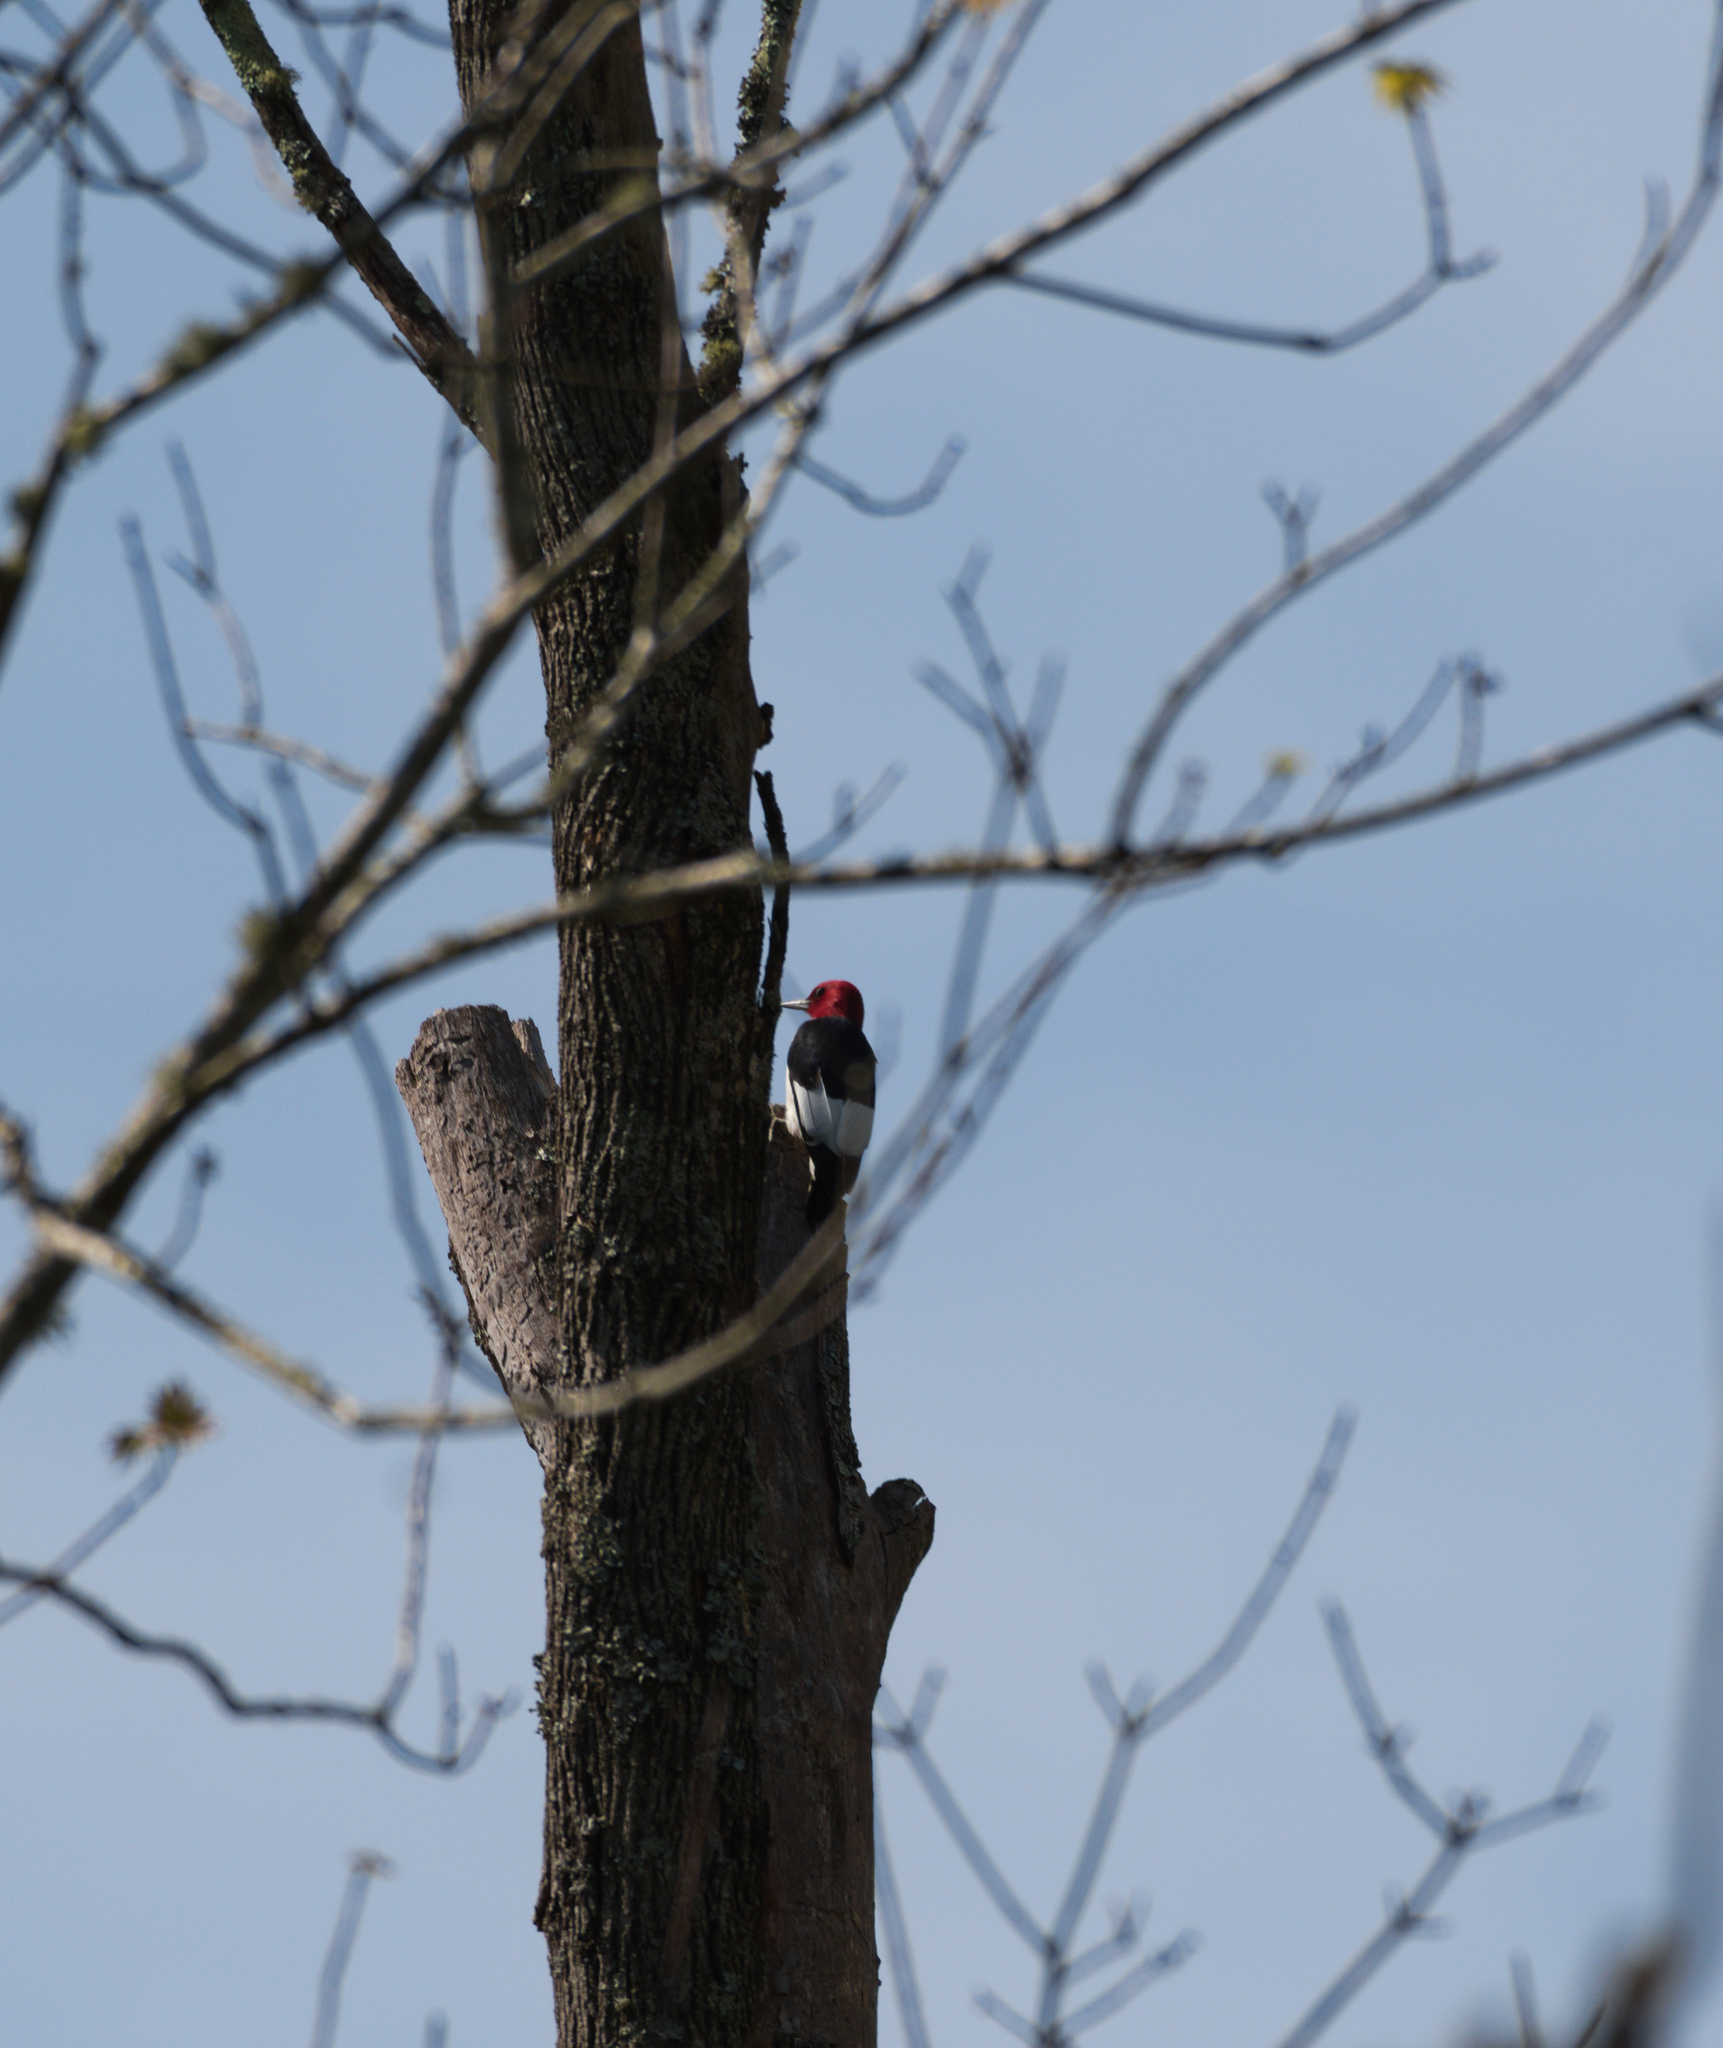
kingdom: Animalia
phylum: Chordata
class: Aves
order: Piciformes
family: Picidae
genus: Melanerpes
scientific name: Melanerpes erythrocephalus
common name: Red-headed woodpecker
